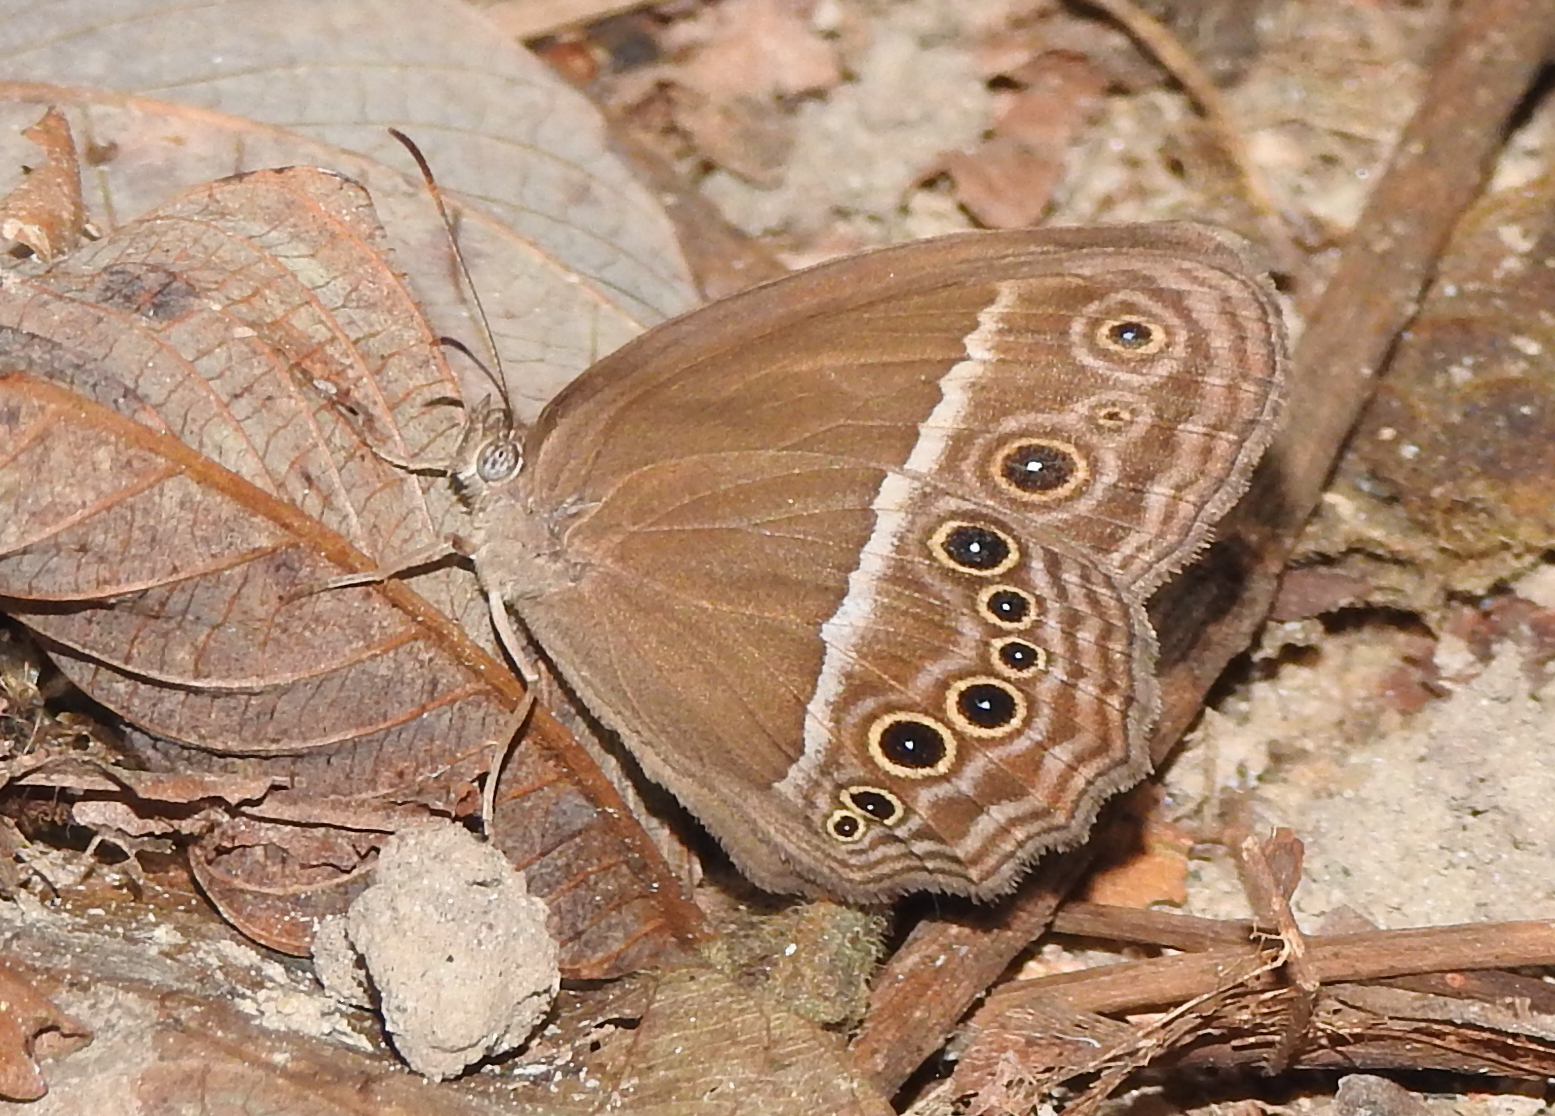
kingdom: Animalia
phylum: Arthropoda
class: Insecta
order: Lepidoptera
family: Nymphalidae
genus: Mycalesis
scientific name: Mycalesis perseus
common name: Dingy bushbrown
